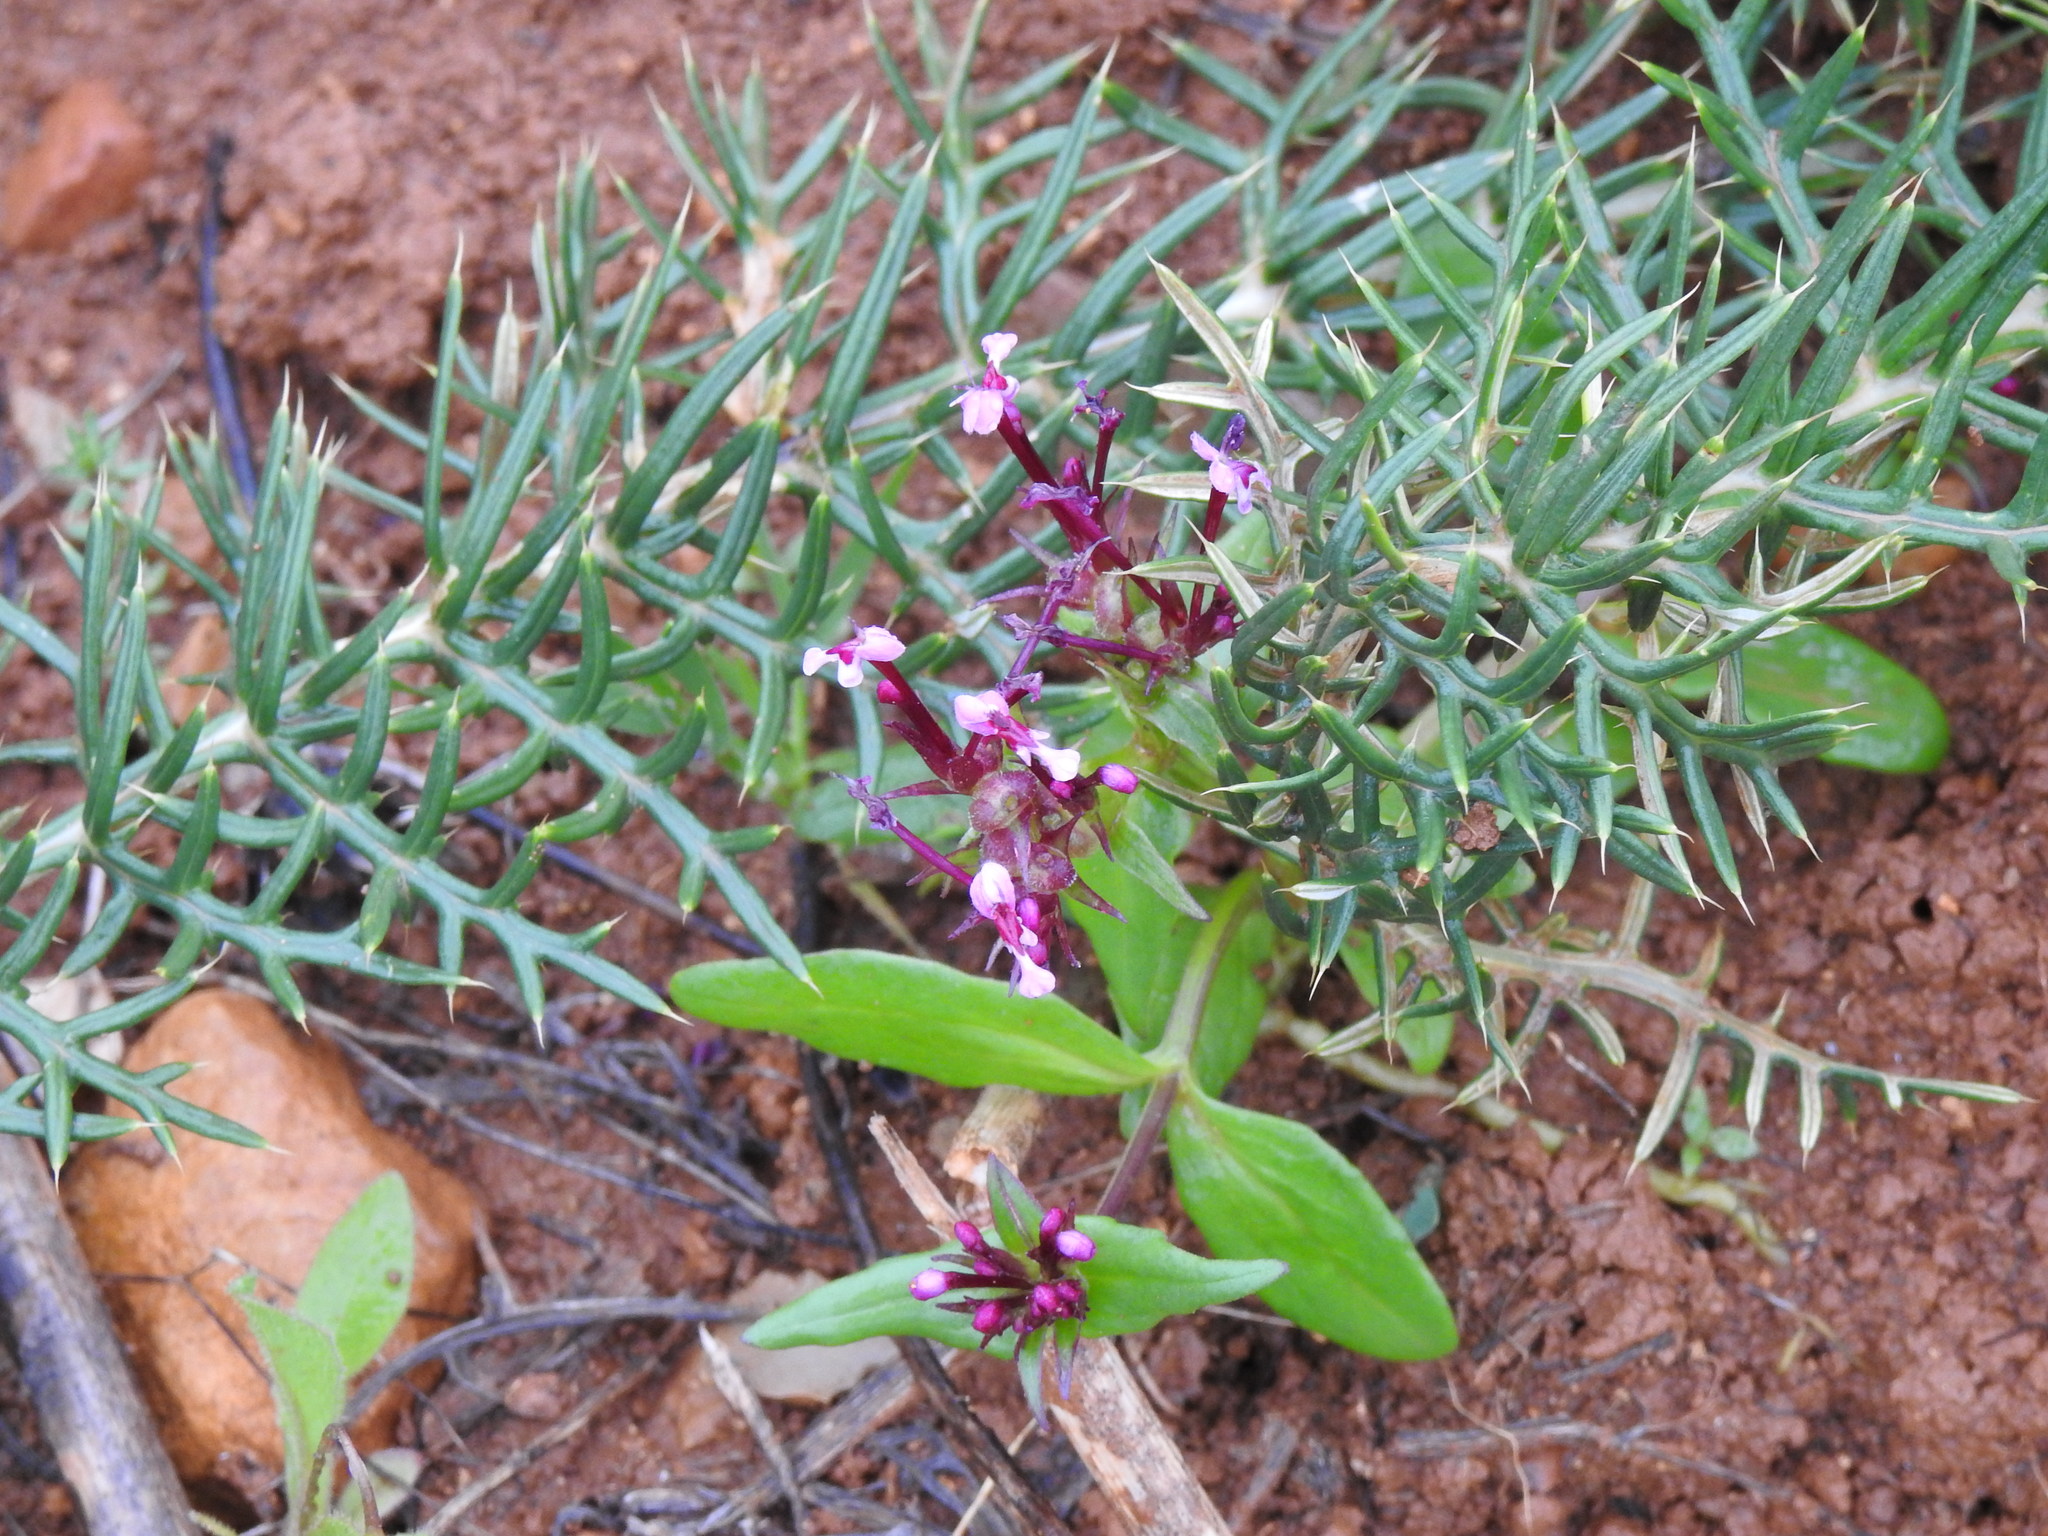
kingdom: Plantae
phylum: Tracheophyta
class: Magnoliopsida
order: Dipsacales
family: Caprifoliaceae
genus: Fedia
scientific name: Fedia cornucopiae
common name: Horn-of-plenty
